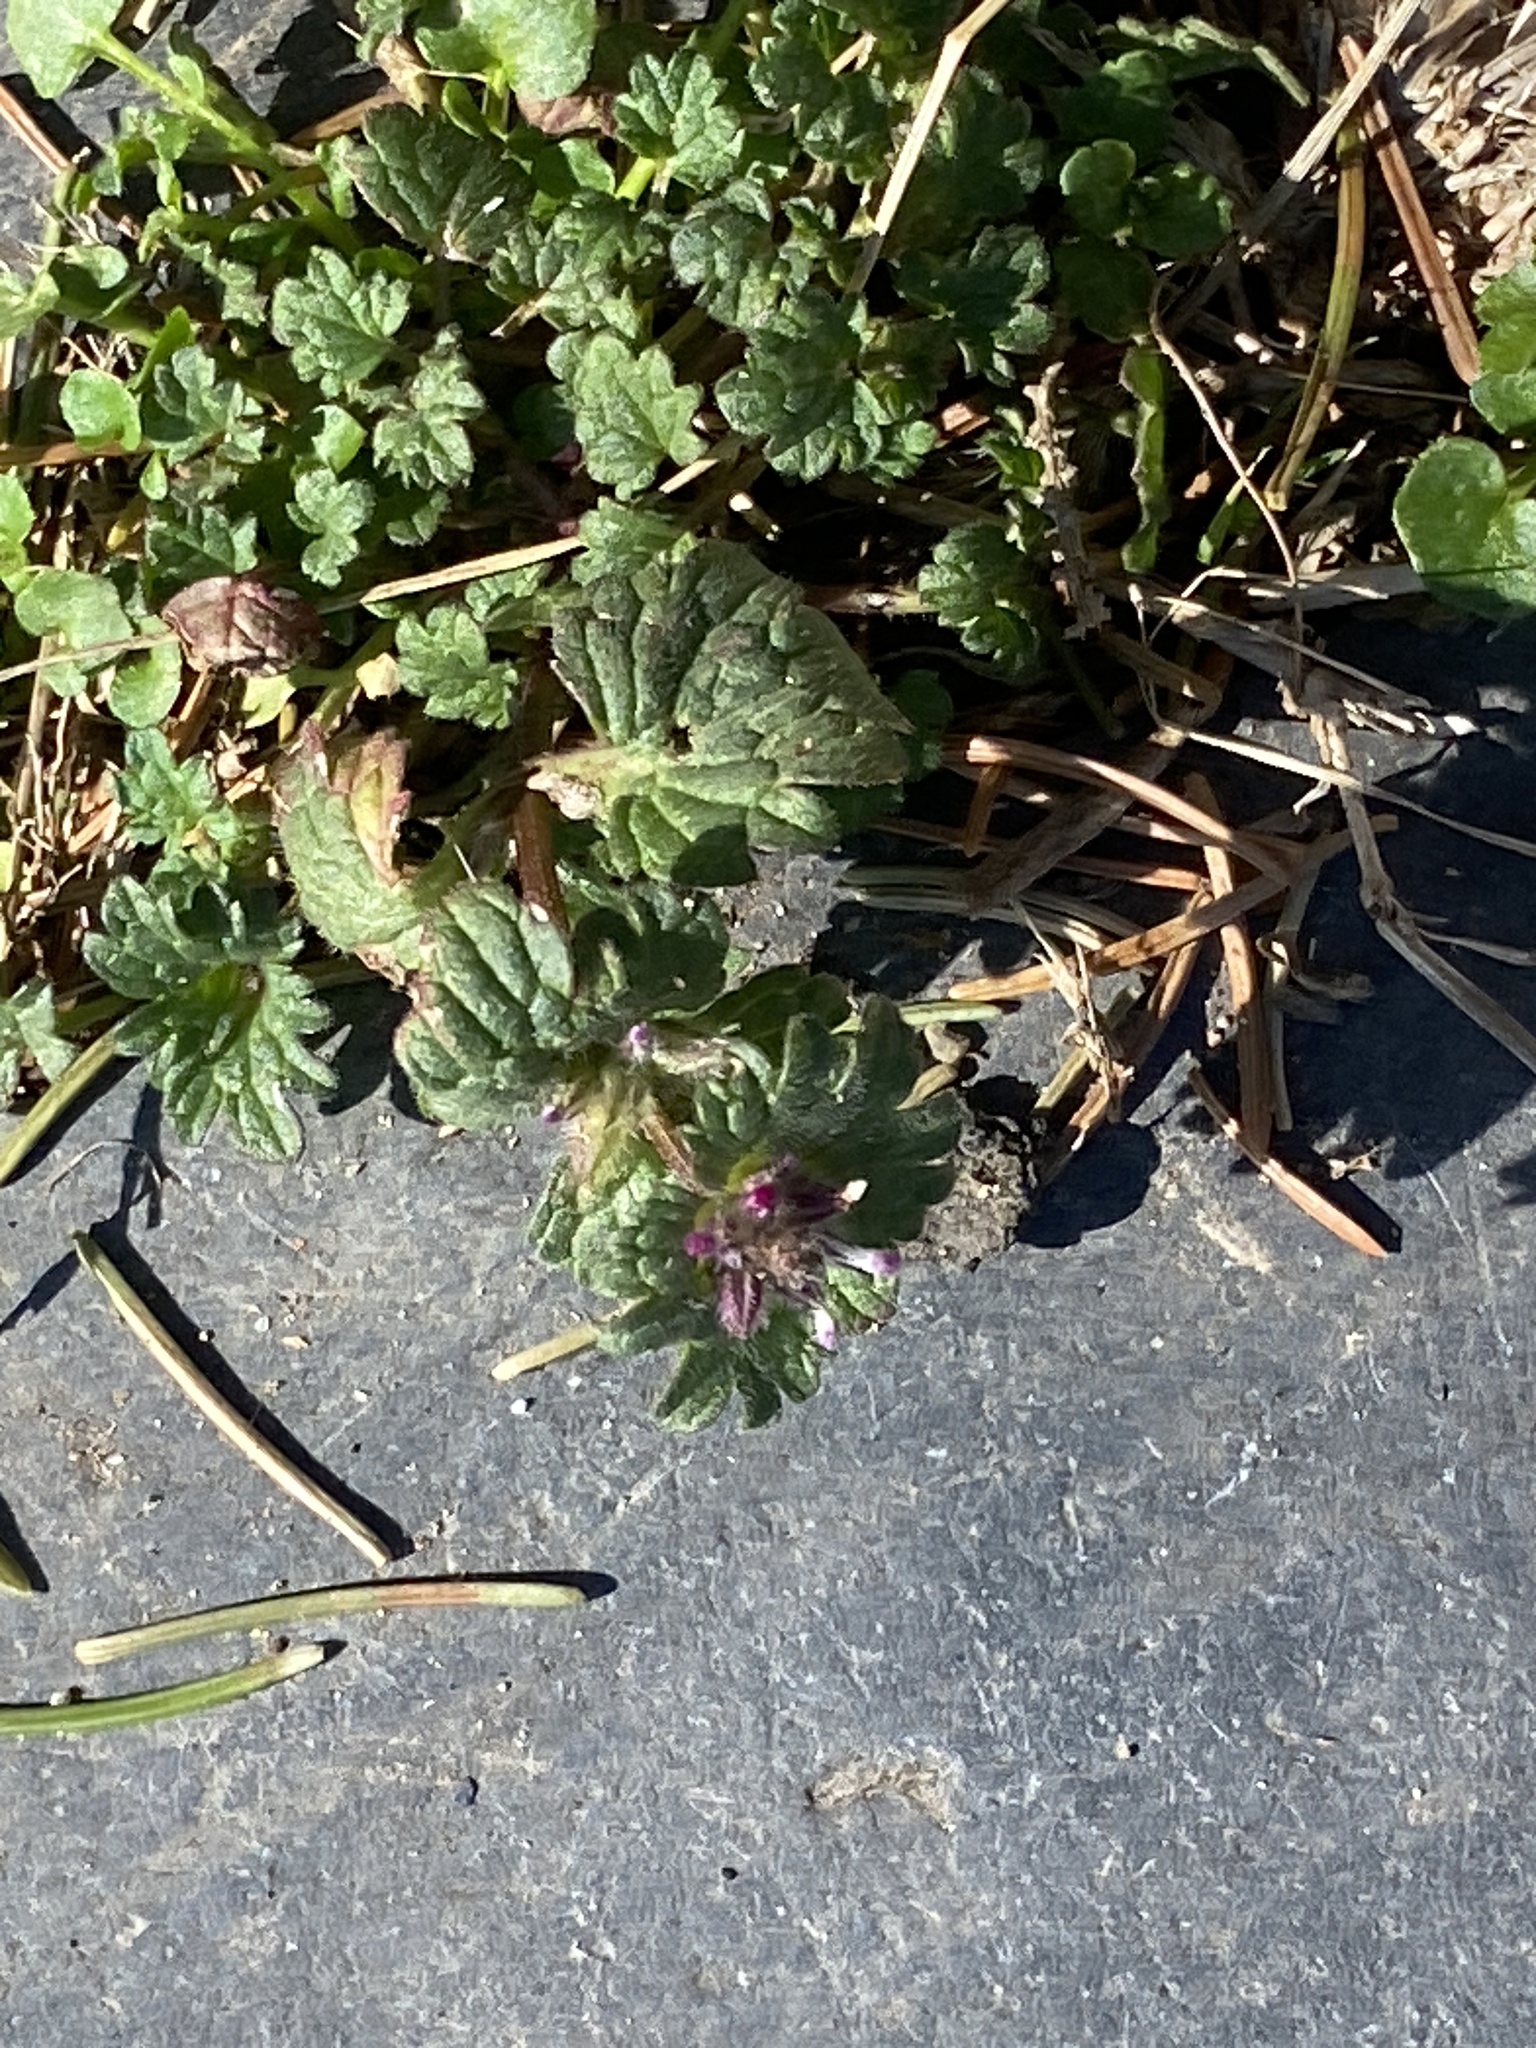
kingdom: Plantae
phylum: Tracheophyta
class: Magnoliopsida
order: Lamiales
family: Lamiaceae
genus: Lamium
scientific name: Lamium amplexicaule
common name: Henbit dead-nettle
